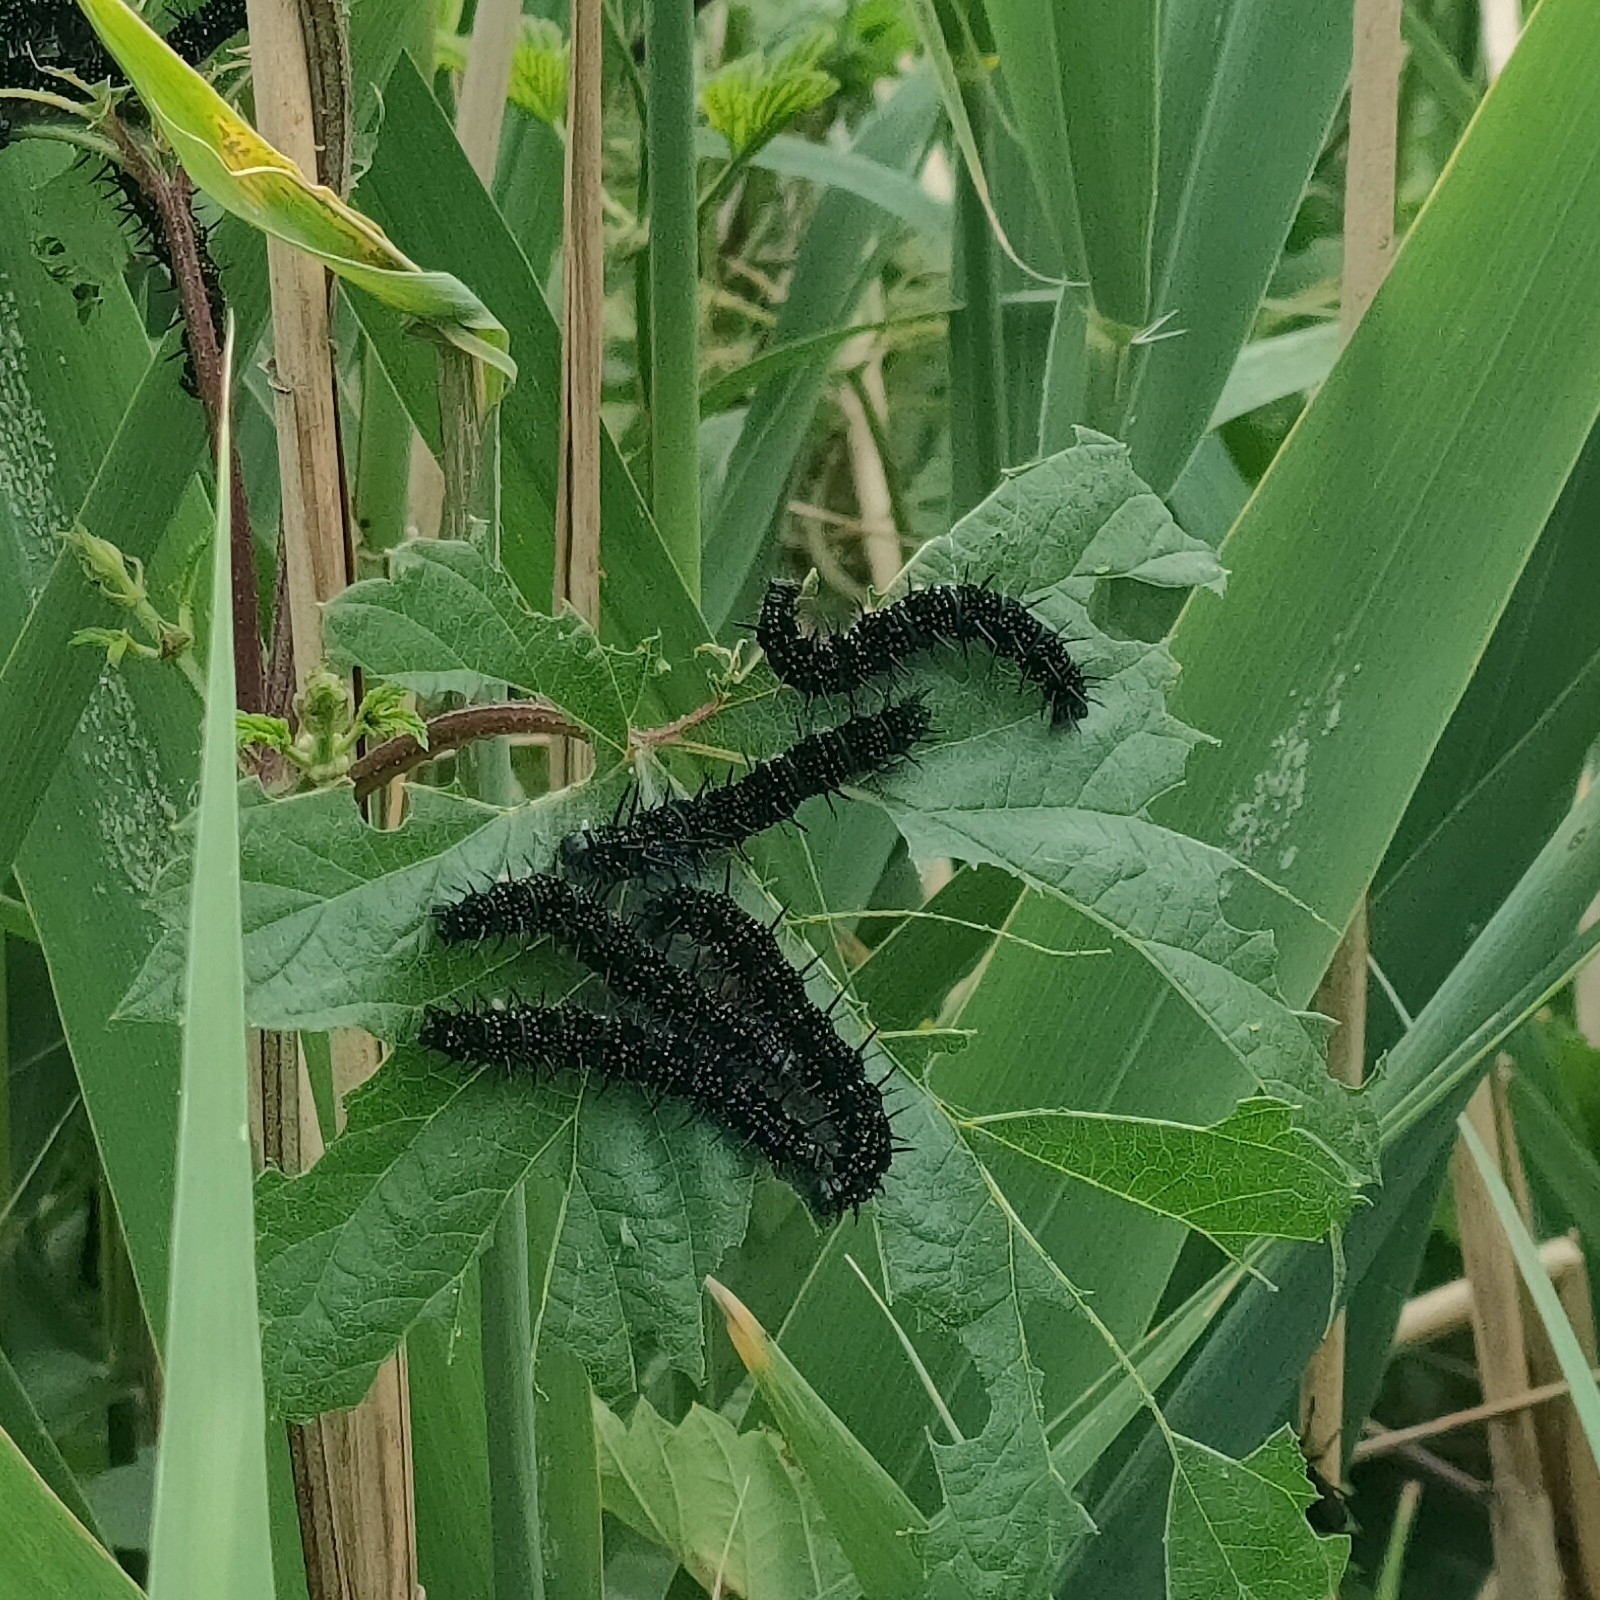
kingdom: Animalia
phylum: Arthropoda
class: Insecta
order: Lepidoptera
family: Nymphalidae
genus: Aglais
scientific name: Aglais io
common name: Peacock
